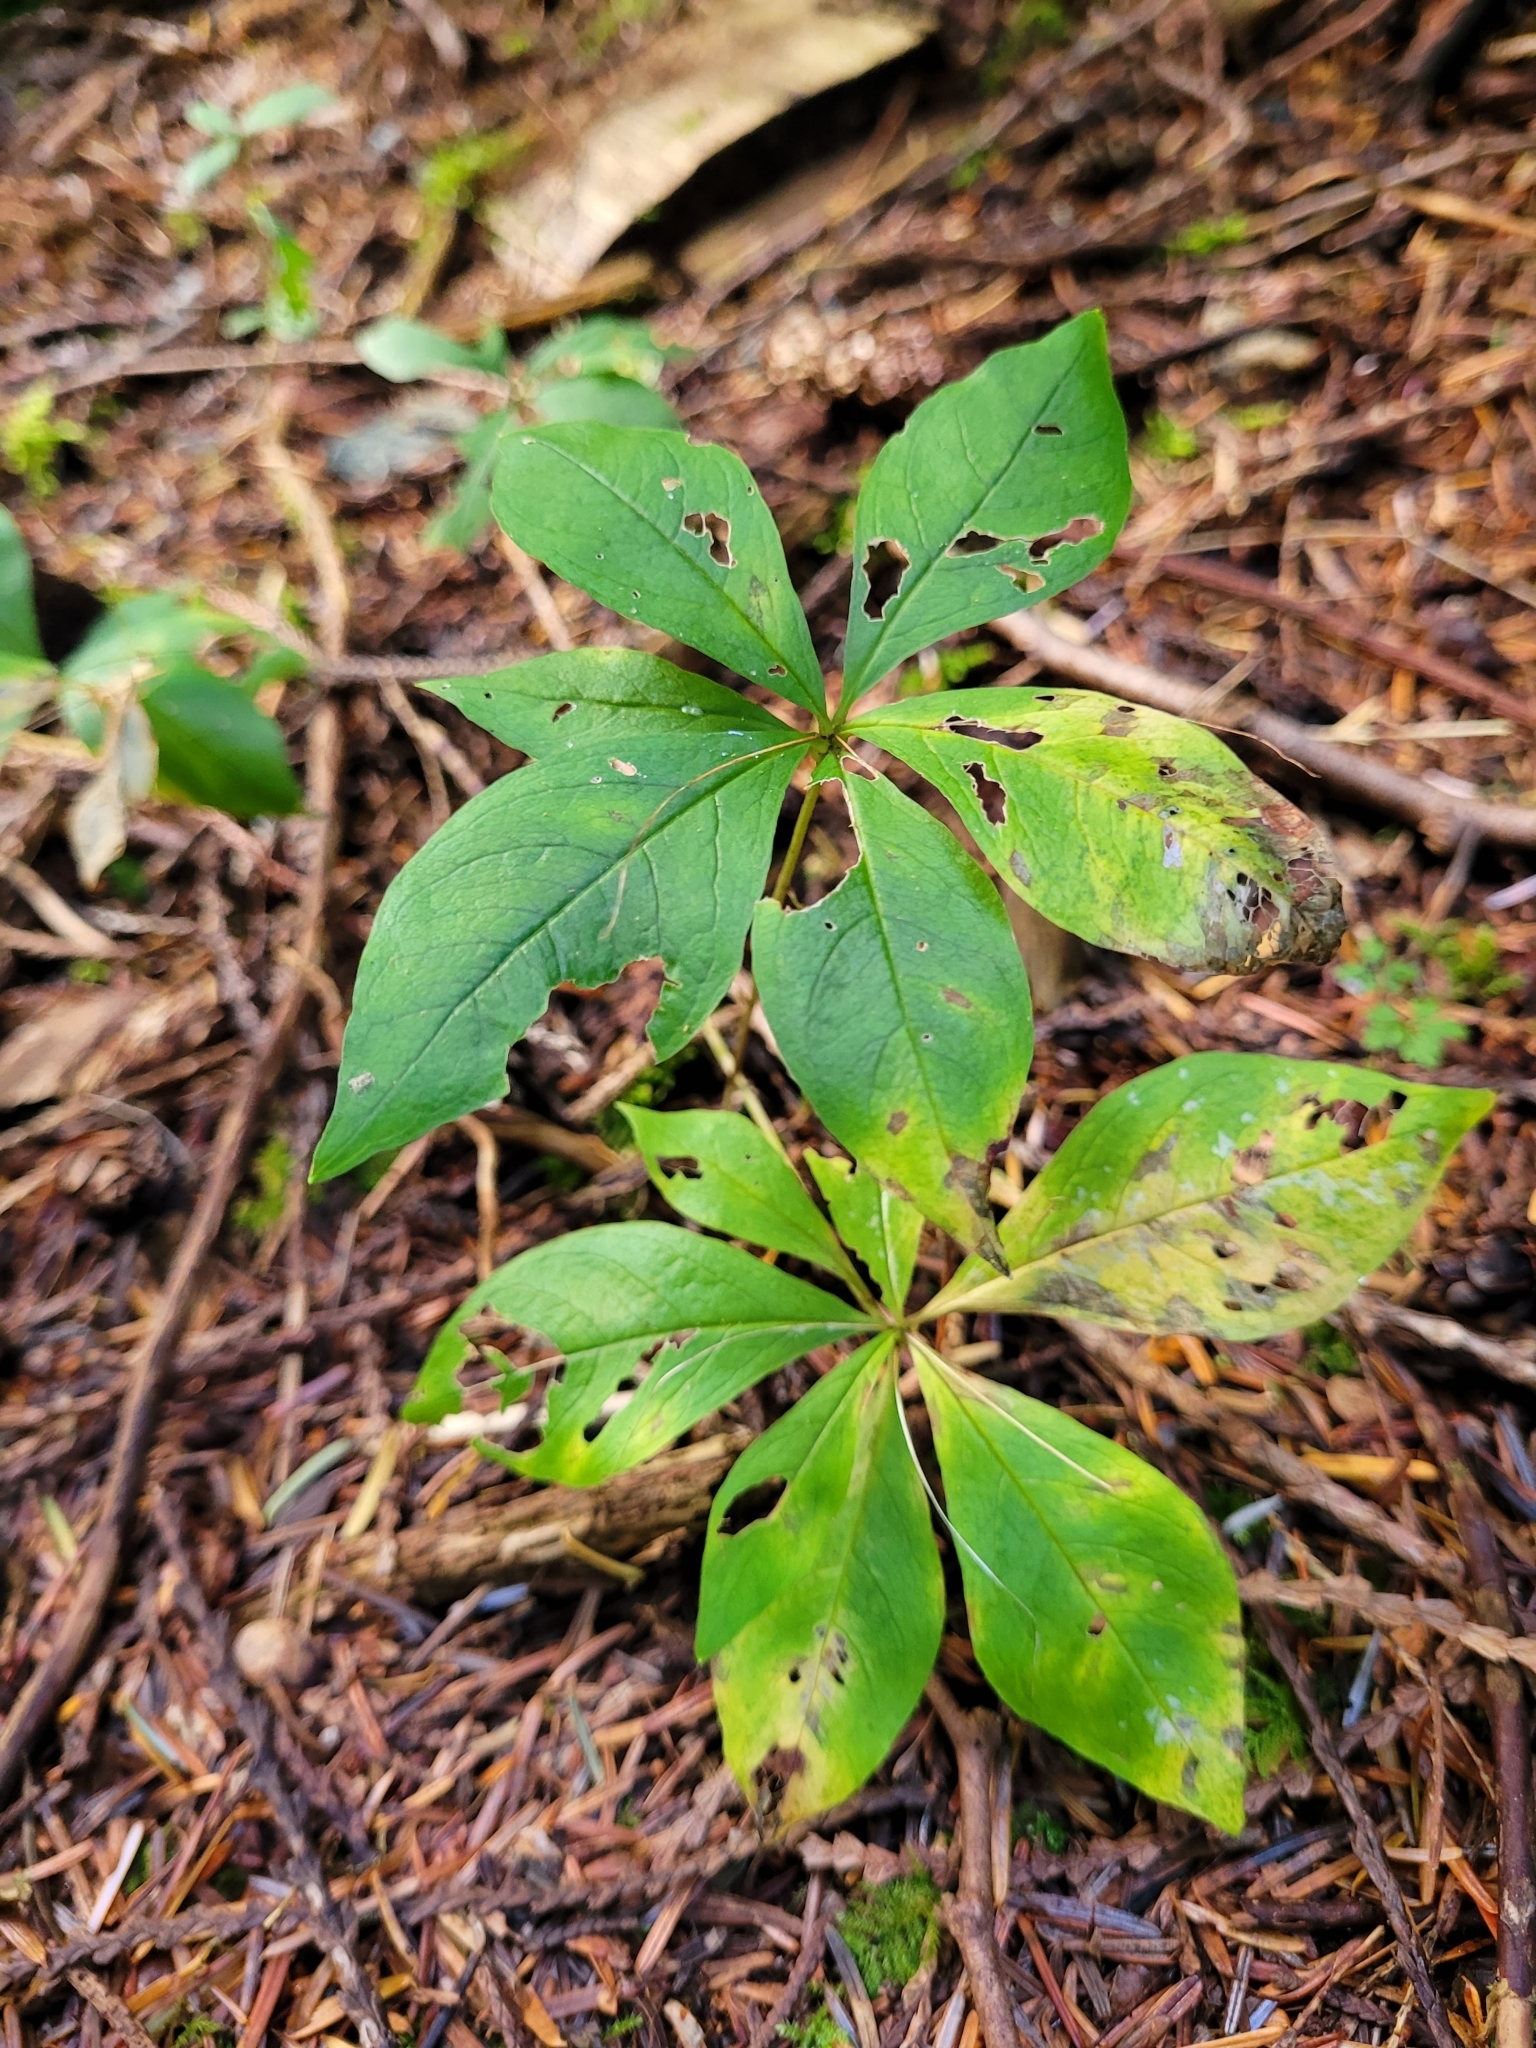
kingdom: Plantae
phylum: Tracheophyta
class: Magnoliopsida
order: Ericales
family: Ericaceae
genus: Rhododendron
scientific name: Rhododendron menziesii
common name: Pacific menziesia
